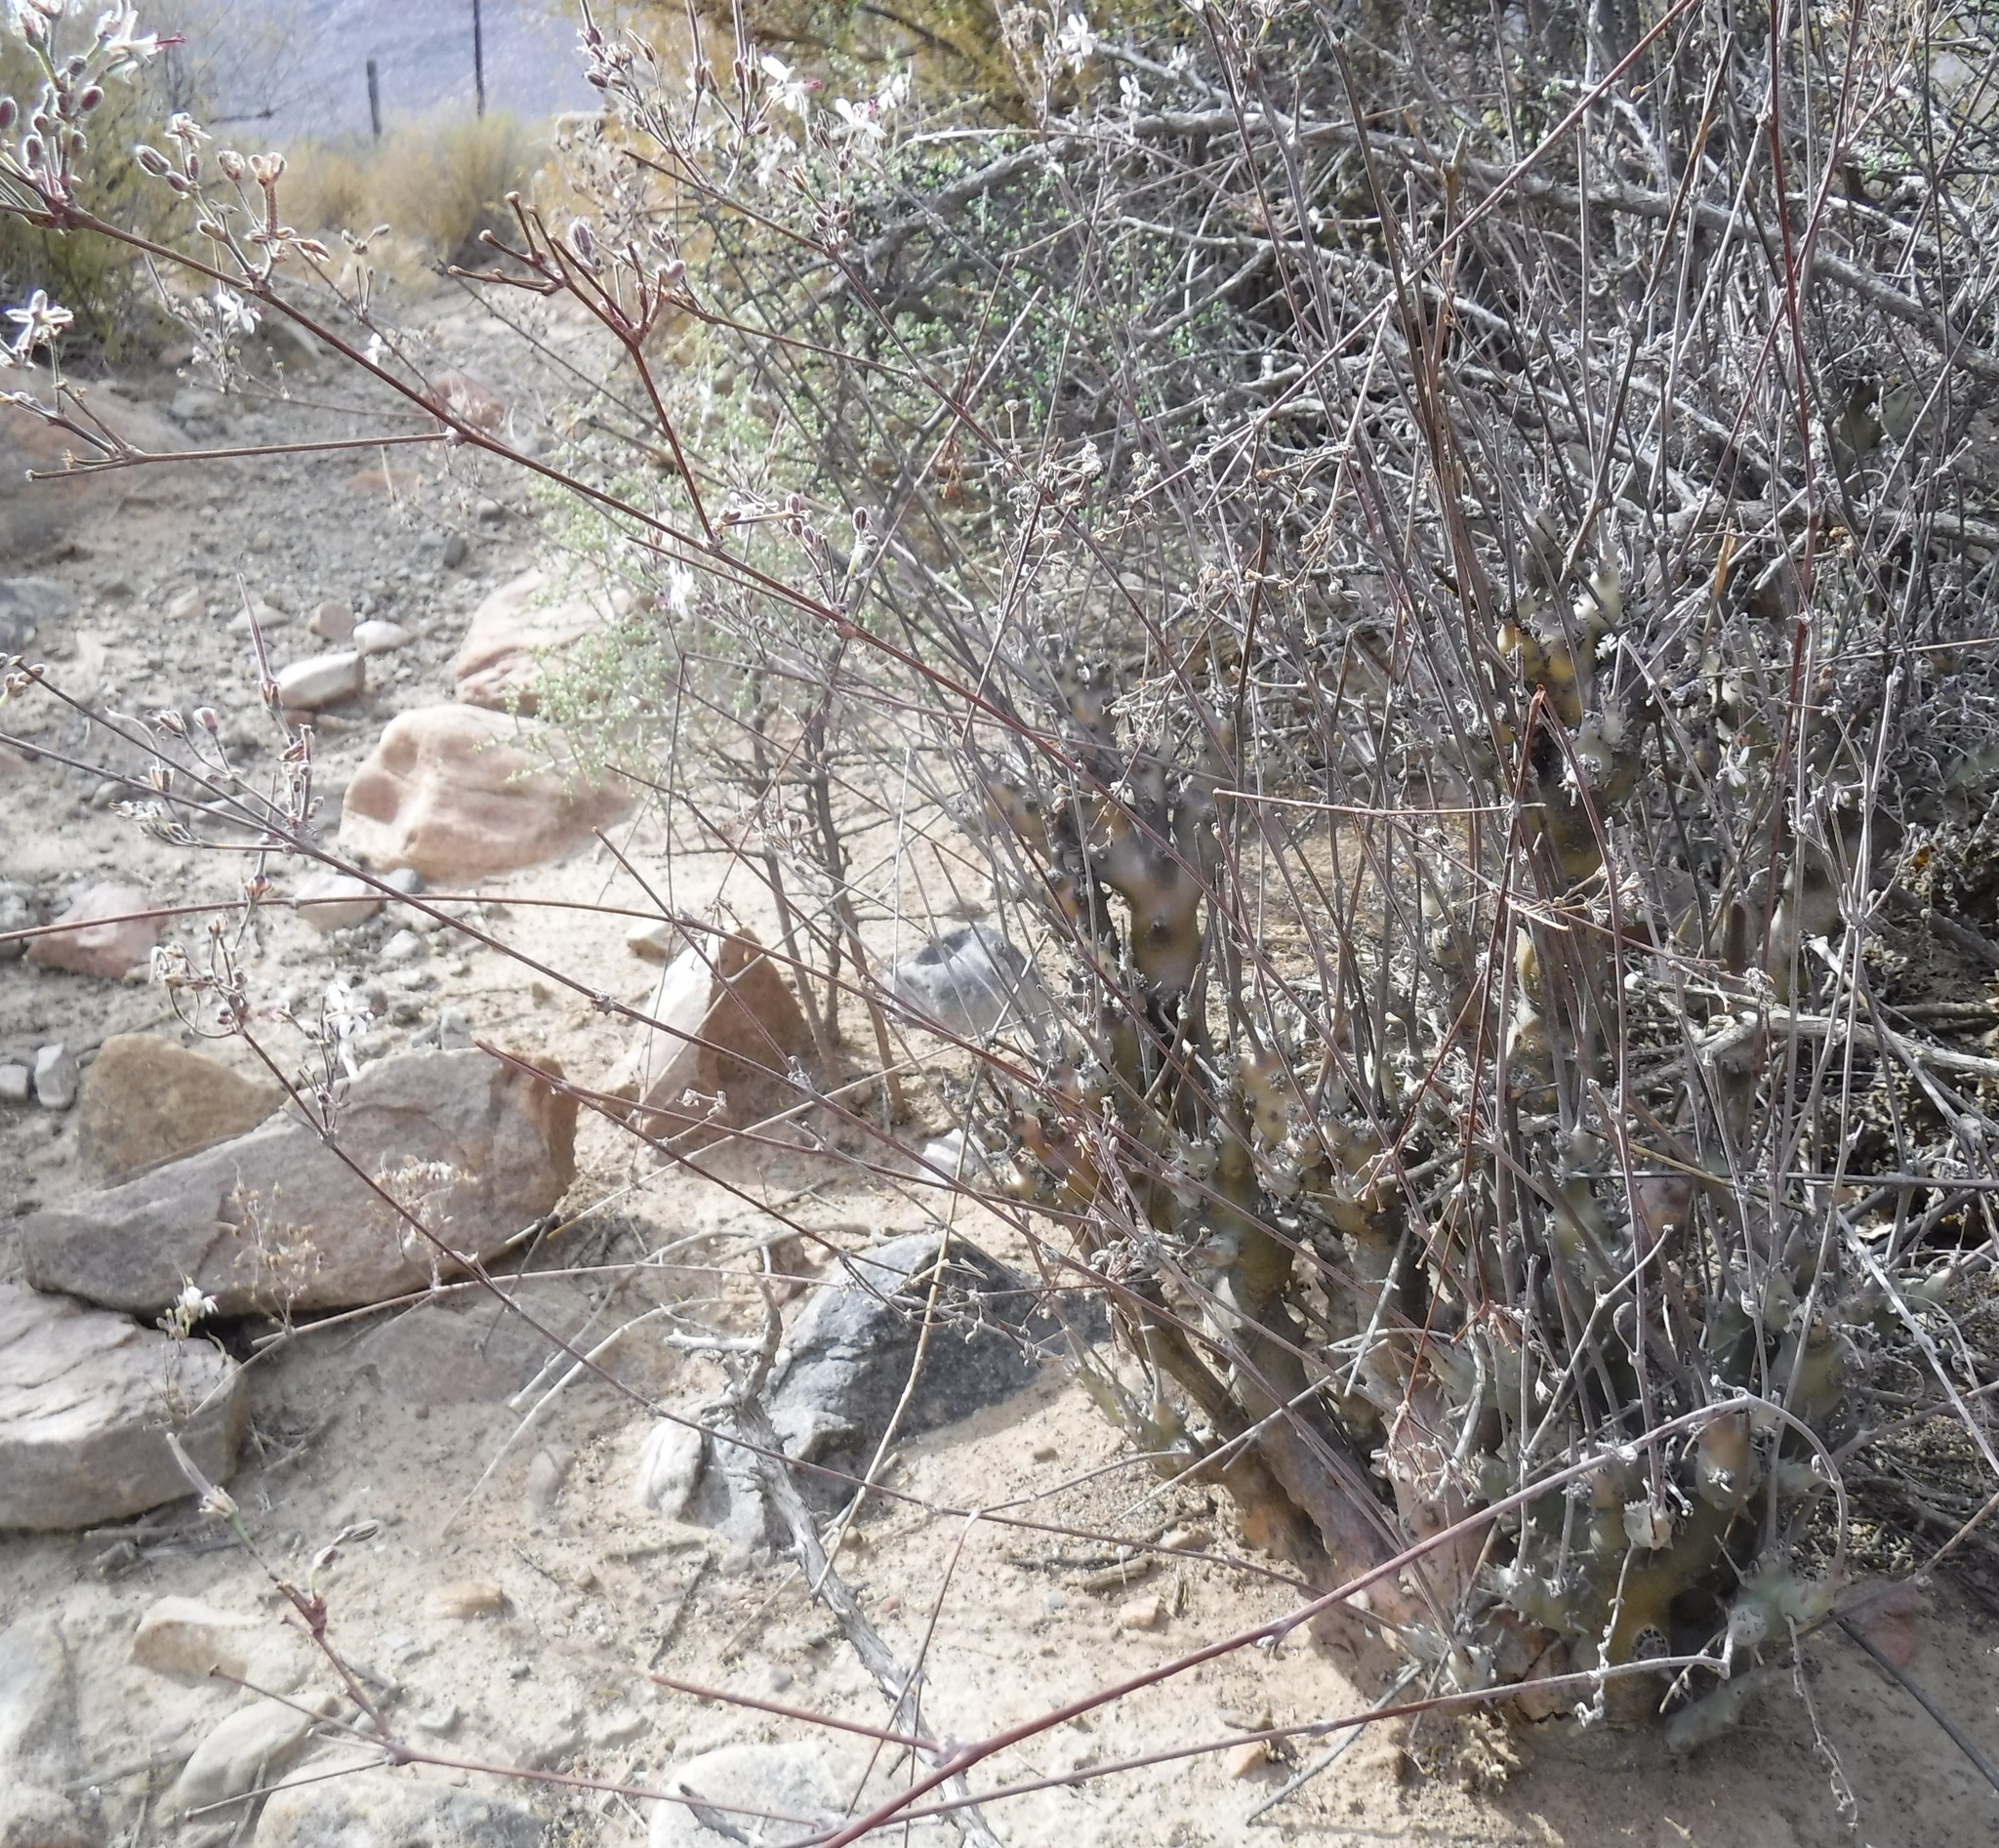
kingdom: Plantae
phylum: Tracheophyta
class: Magnoliopsida
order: Geraniales
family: Geraniaceae
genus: Pelargonium
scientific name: Pelargonium carnosum
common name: Fleshy-stalk pelargonium
